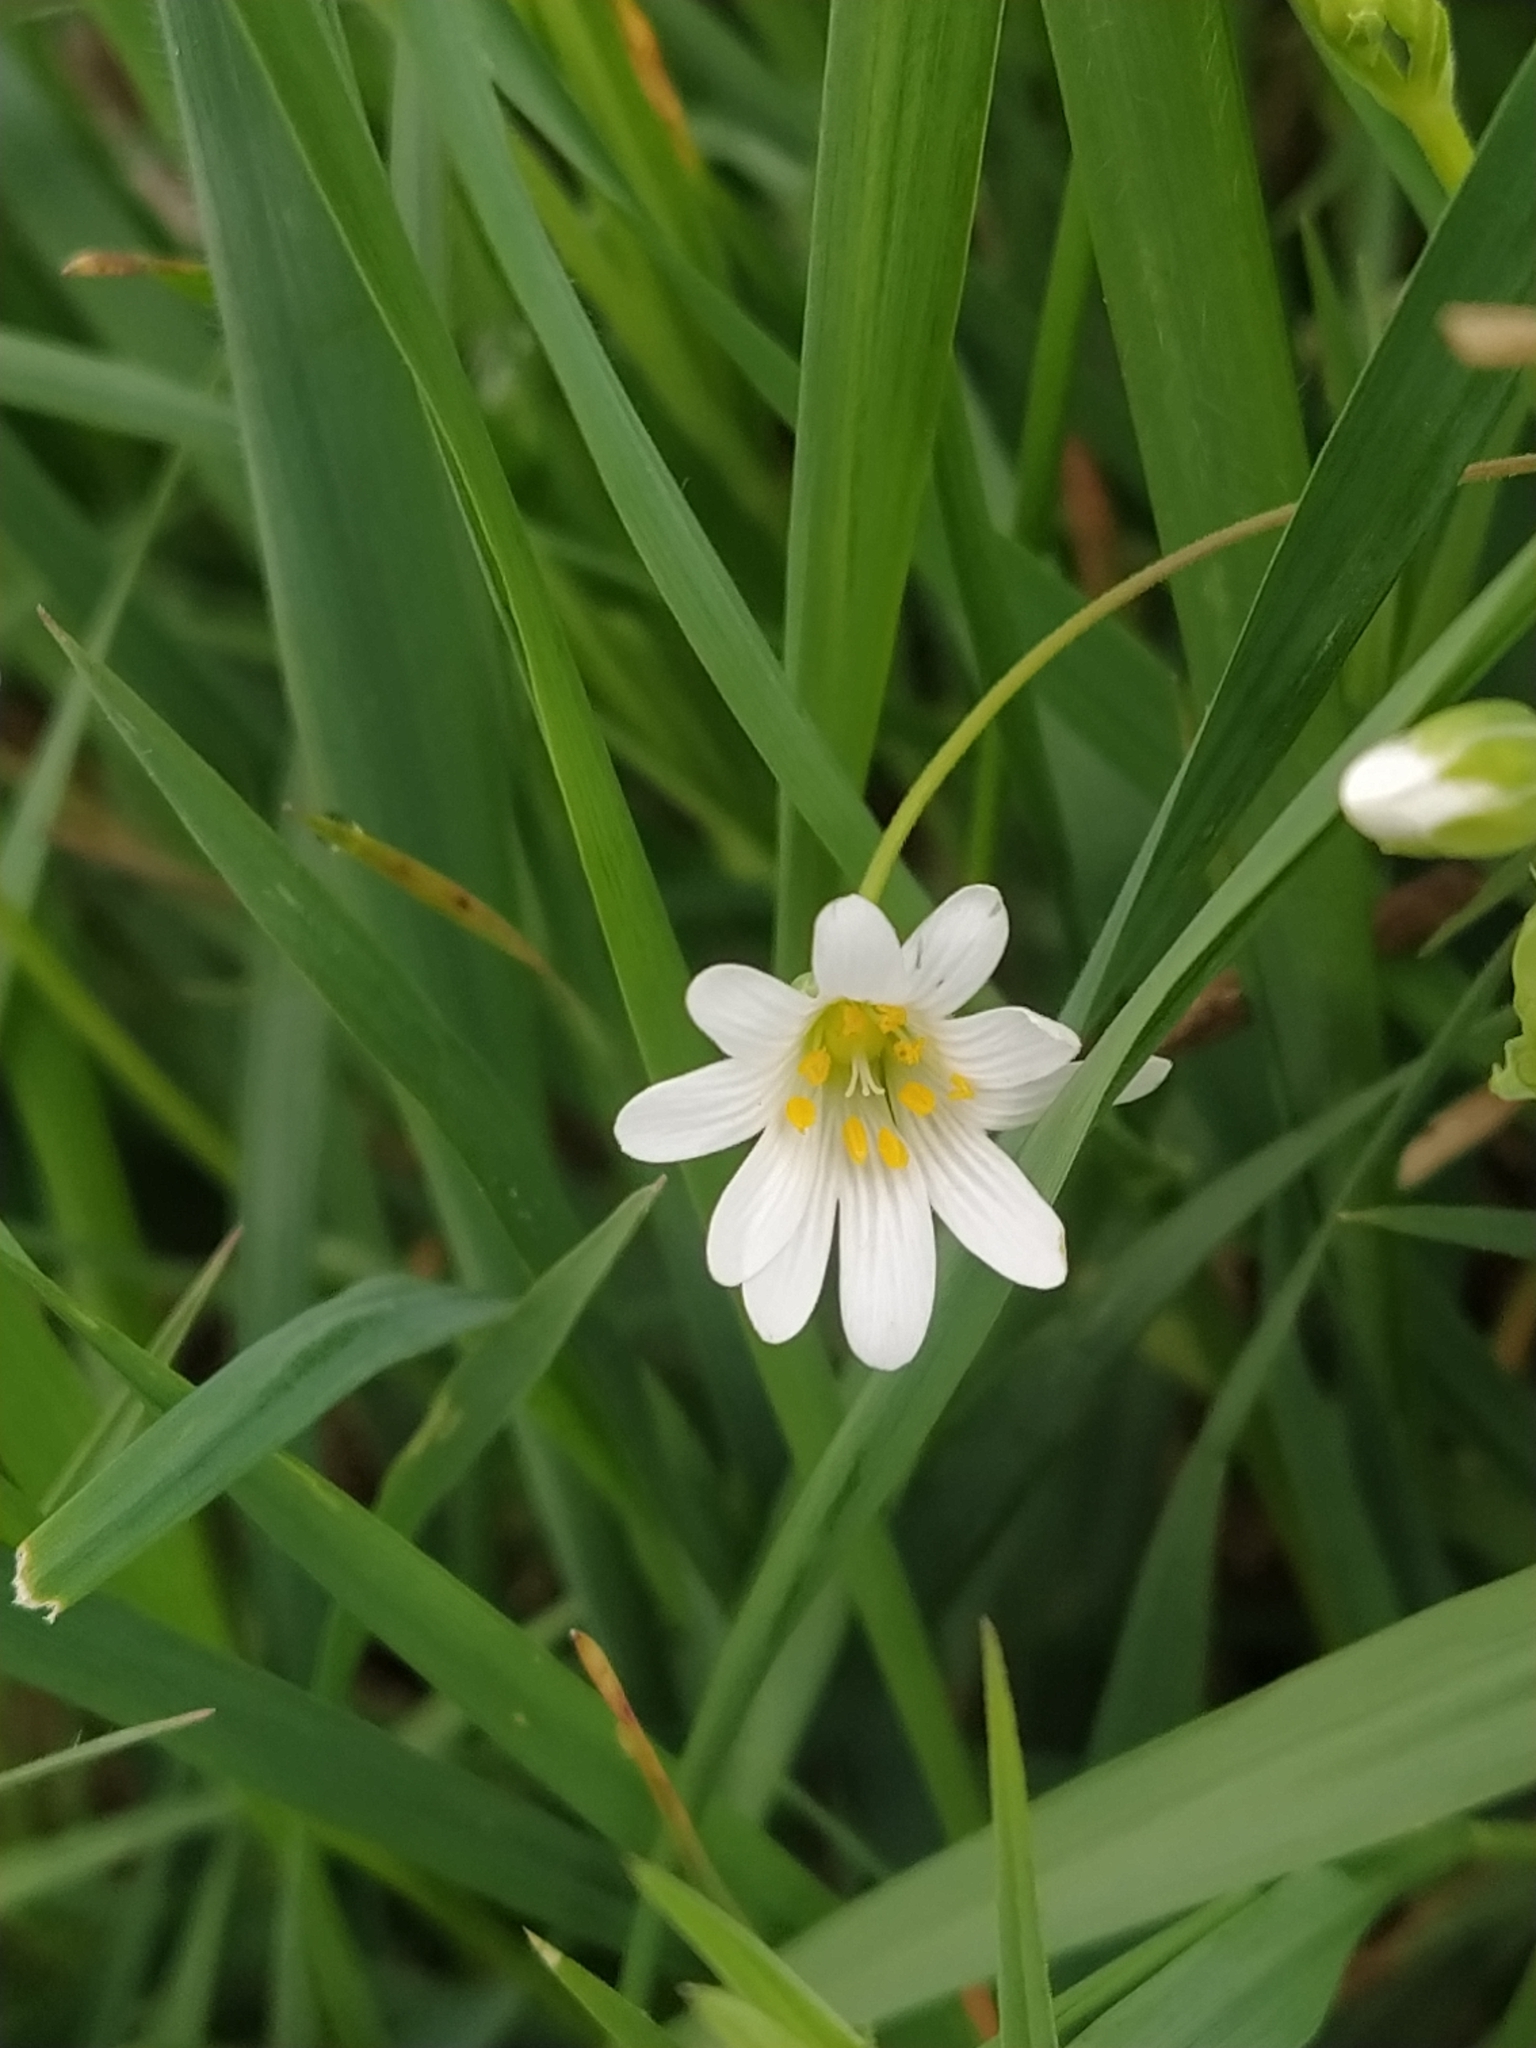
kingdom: Plantae
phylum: Tracheophyta
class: Magnoliopsida
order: Caryophyllales
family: Caryophyllaceae
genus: Rabelera
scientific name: Rabelera holostea
